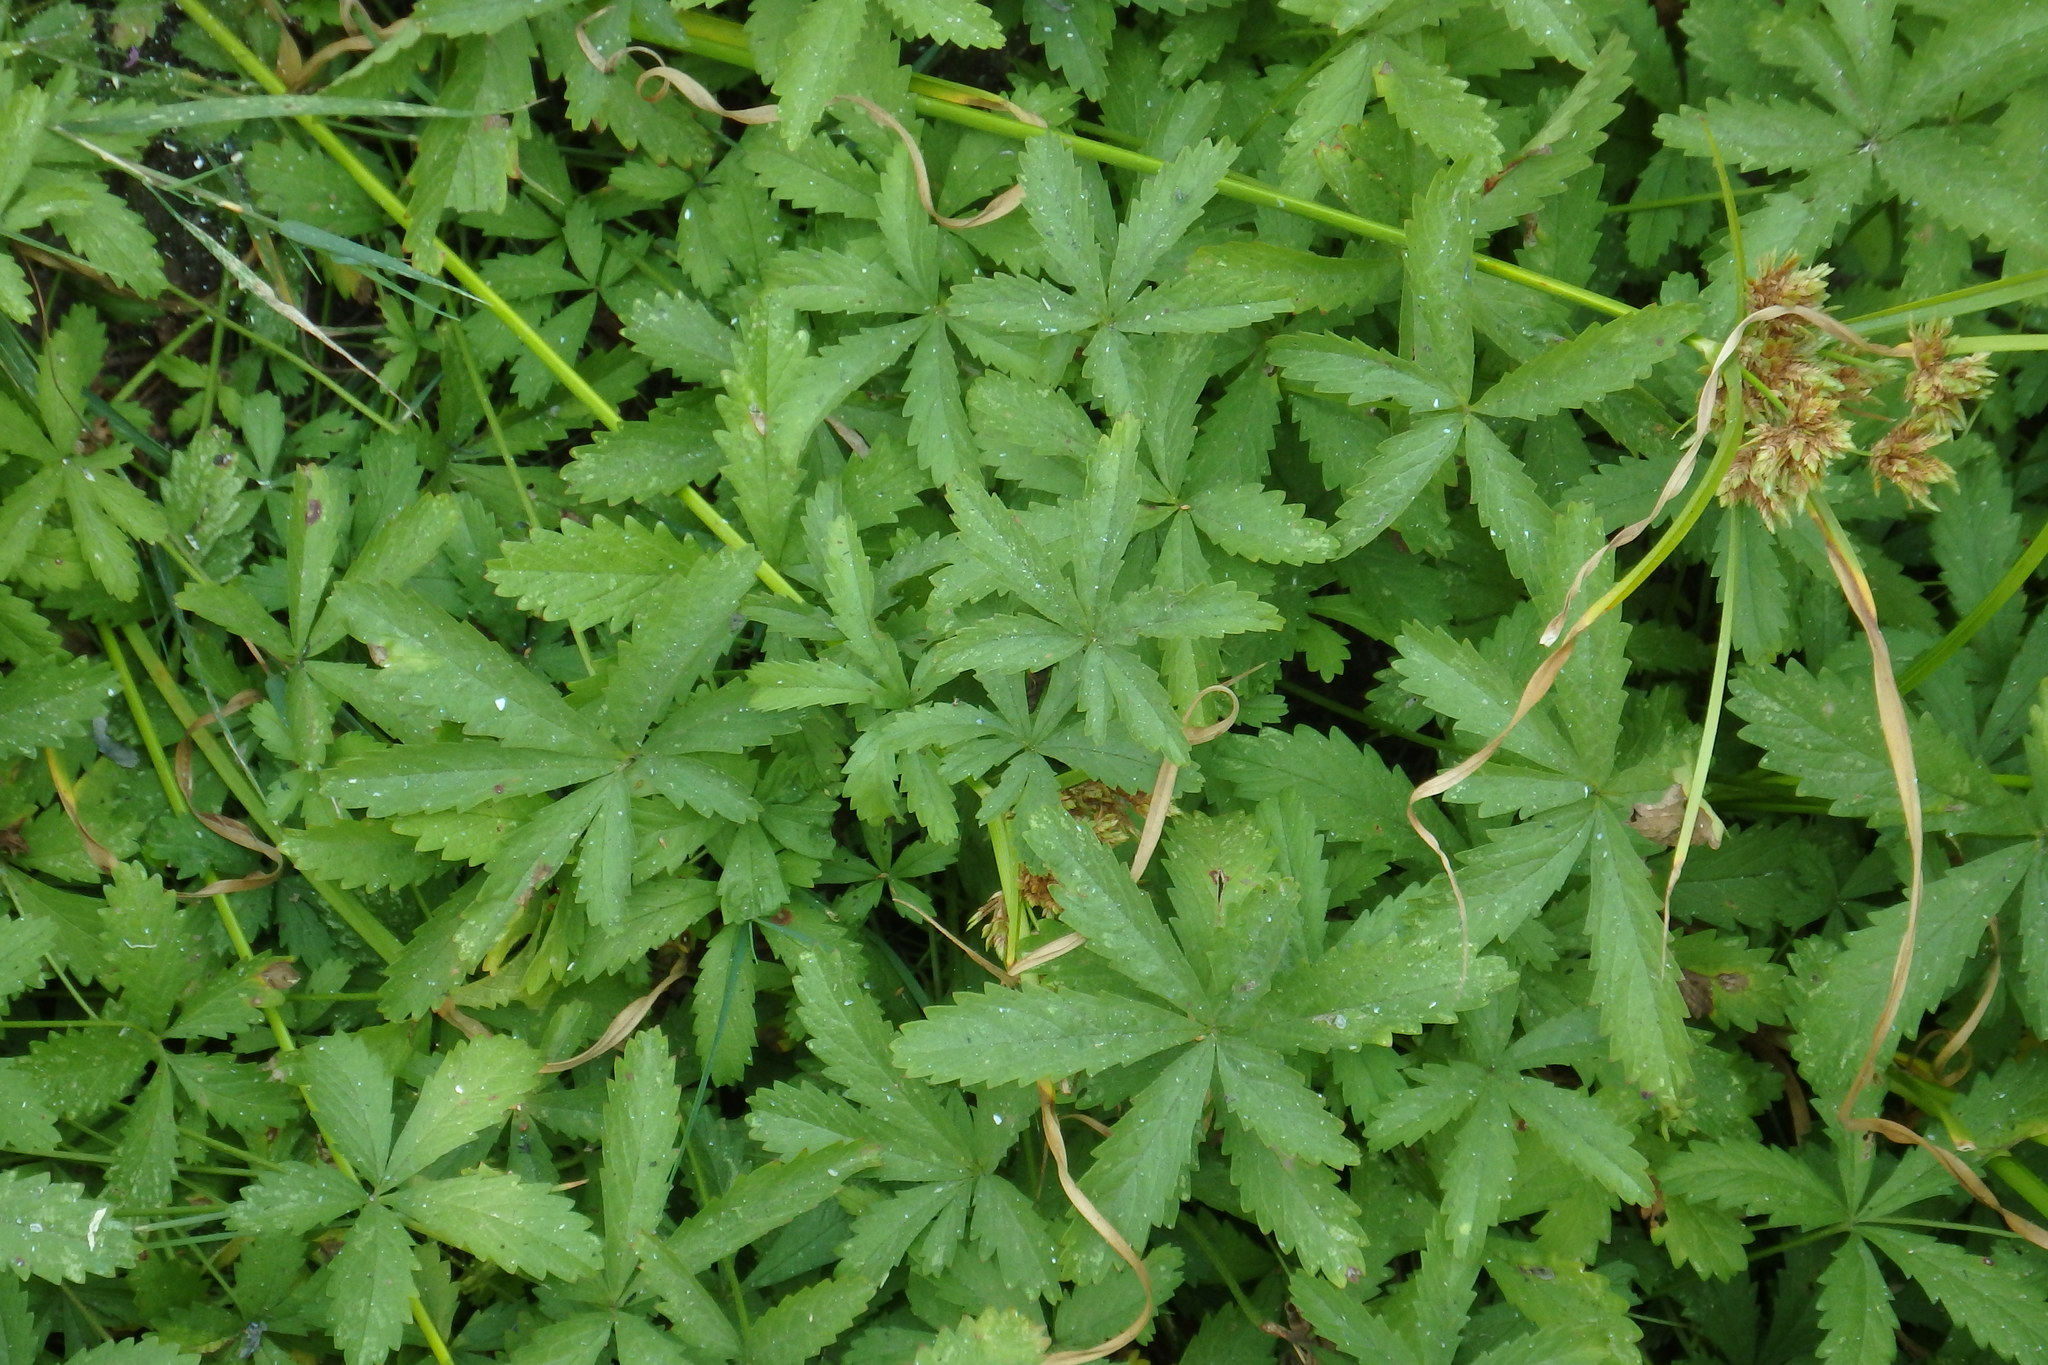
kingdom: Plantae
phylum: Tracheophyta
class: Magnoliopsida
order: Rosales
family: Rosaceae
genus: Potentilla
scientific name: Potentilla reptans
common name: Creeping cinquefoil
